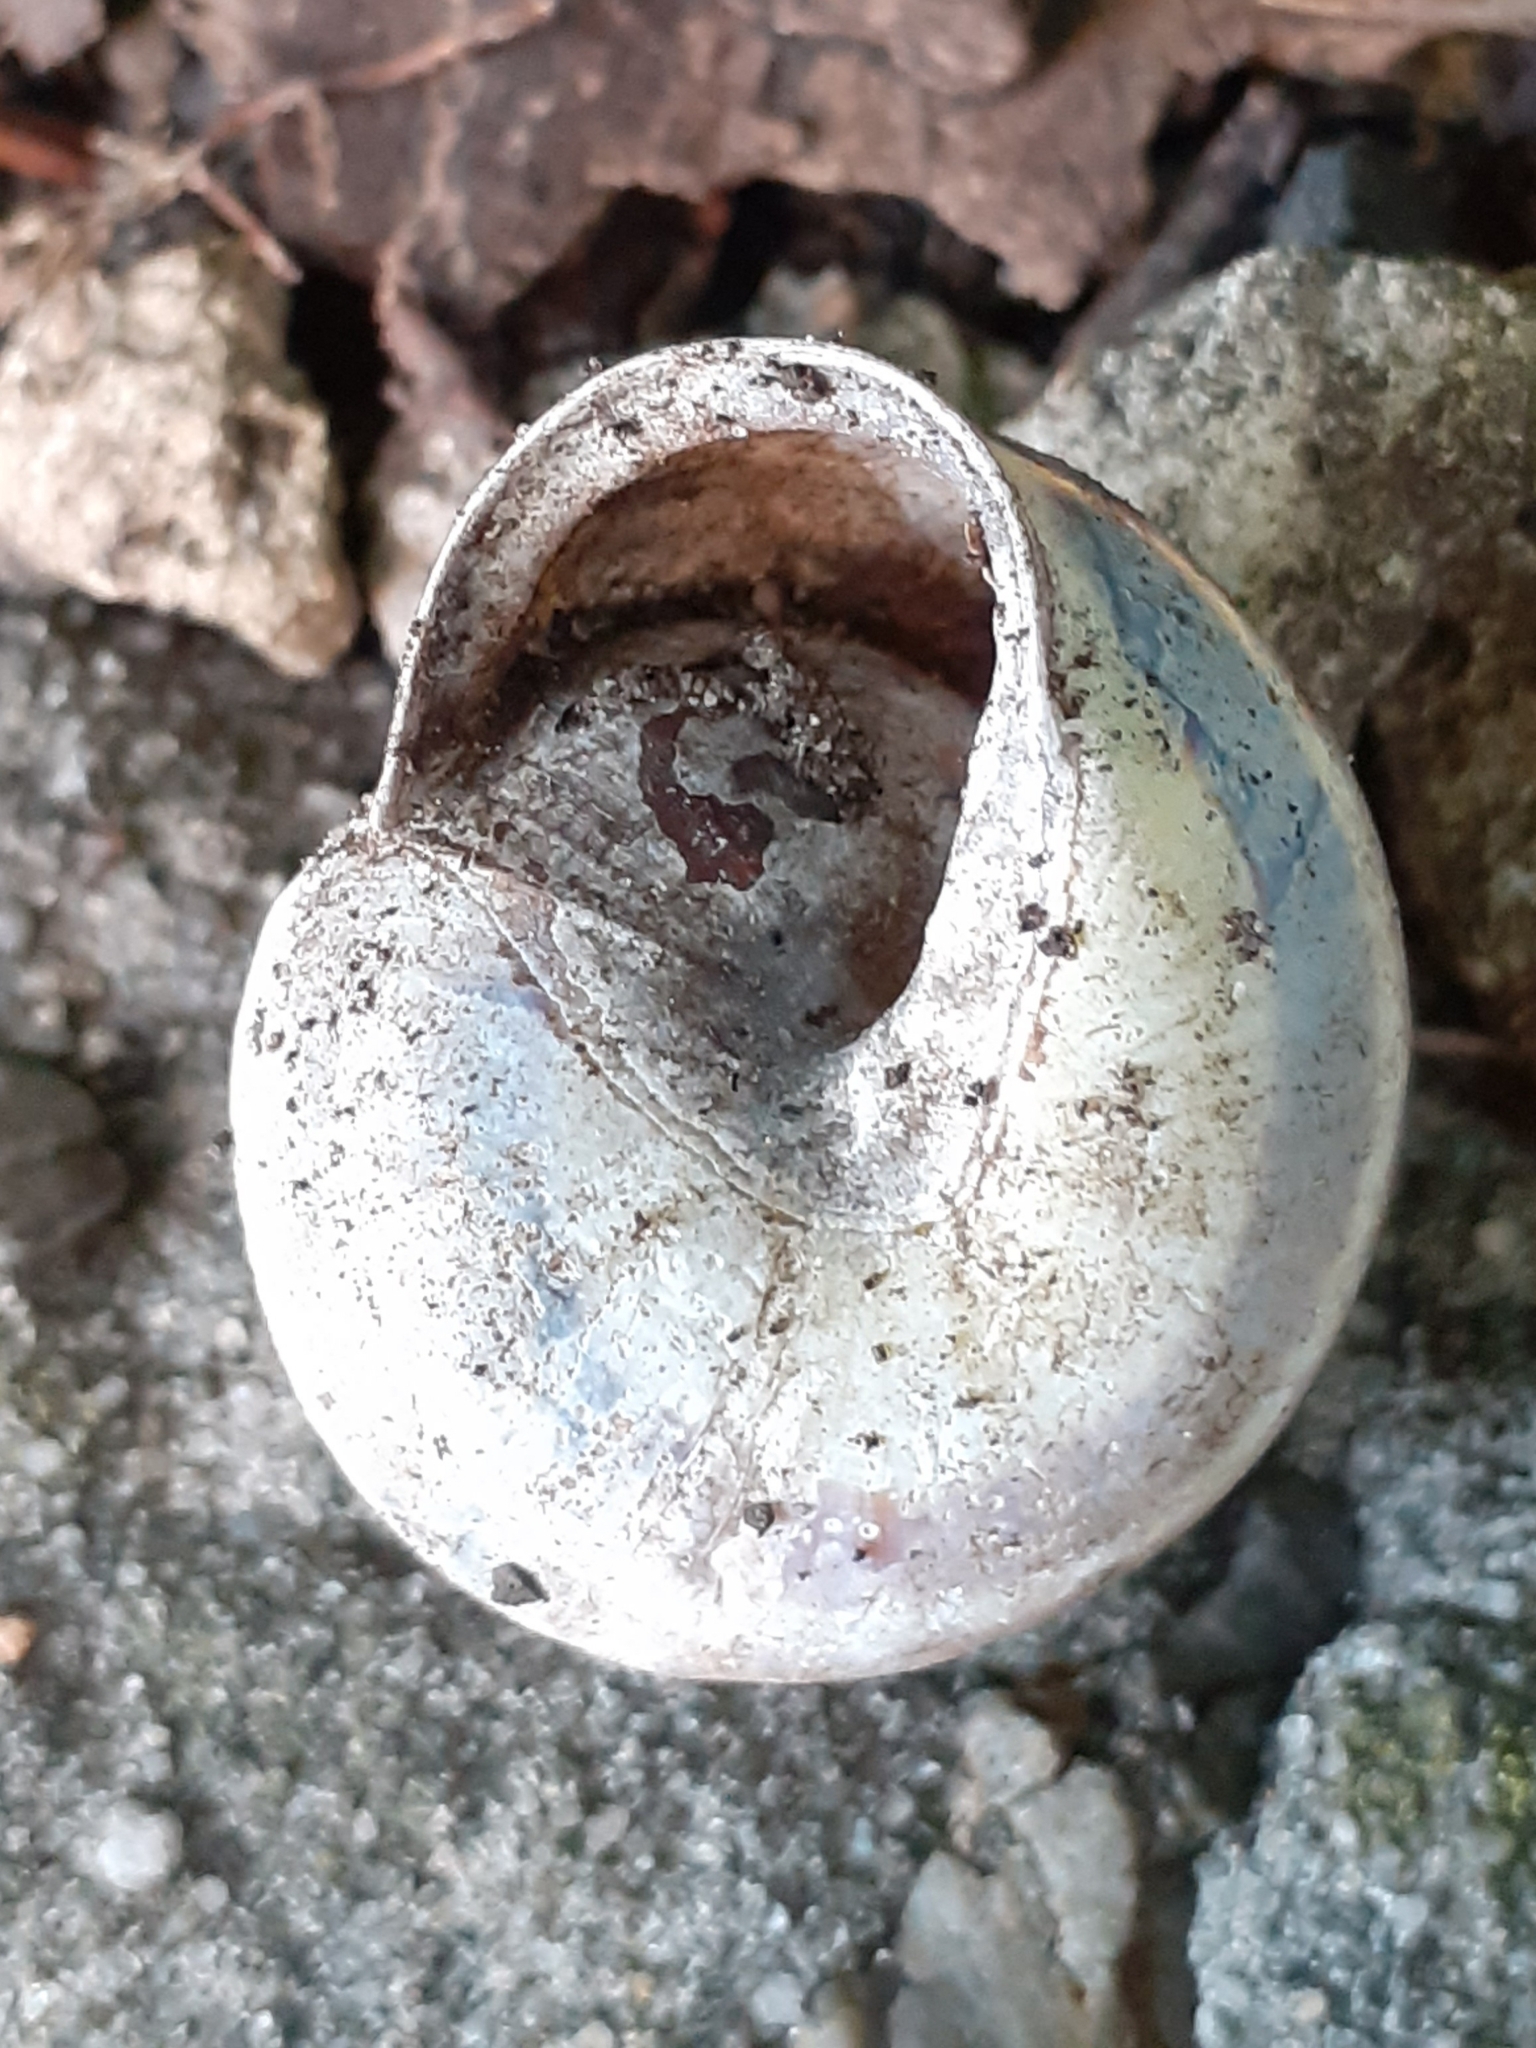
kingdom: Animalia
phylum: Mollusca
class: Gastropoda
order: Stylommatophora
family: Helicidae
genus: Cepaea
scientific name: Cepaea nemoralis
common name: Grovesnail
